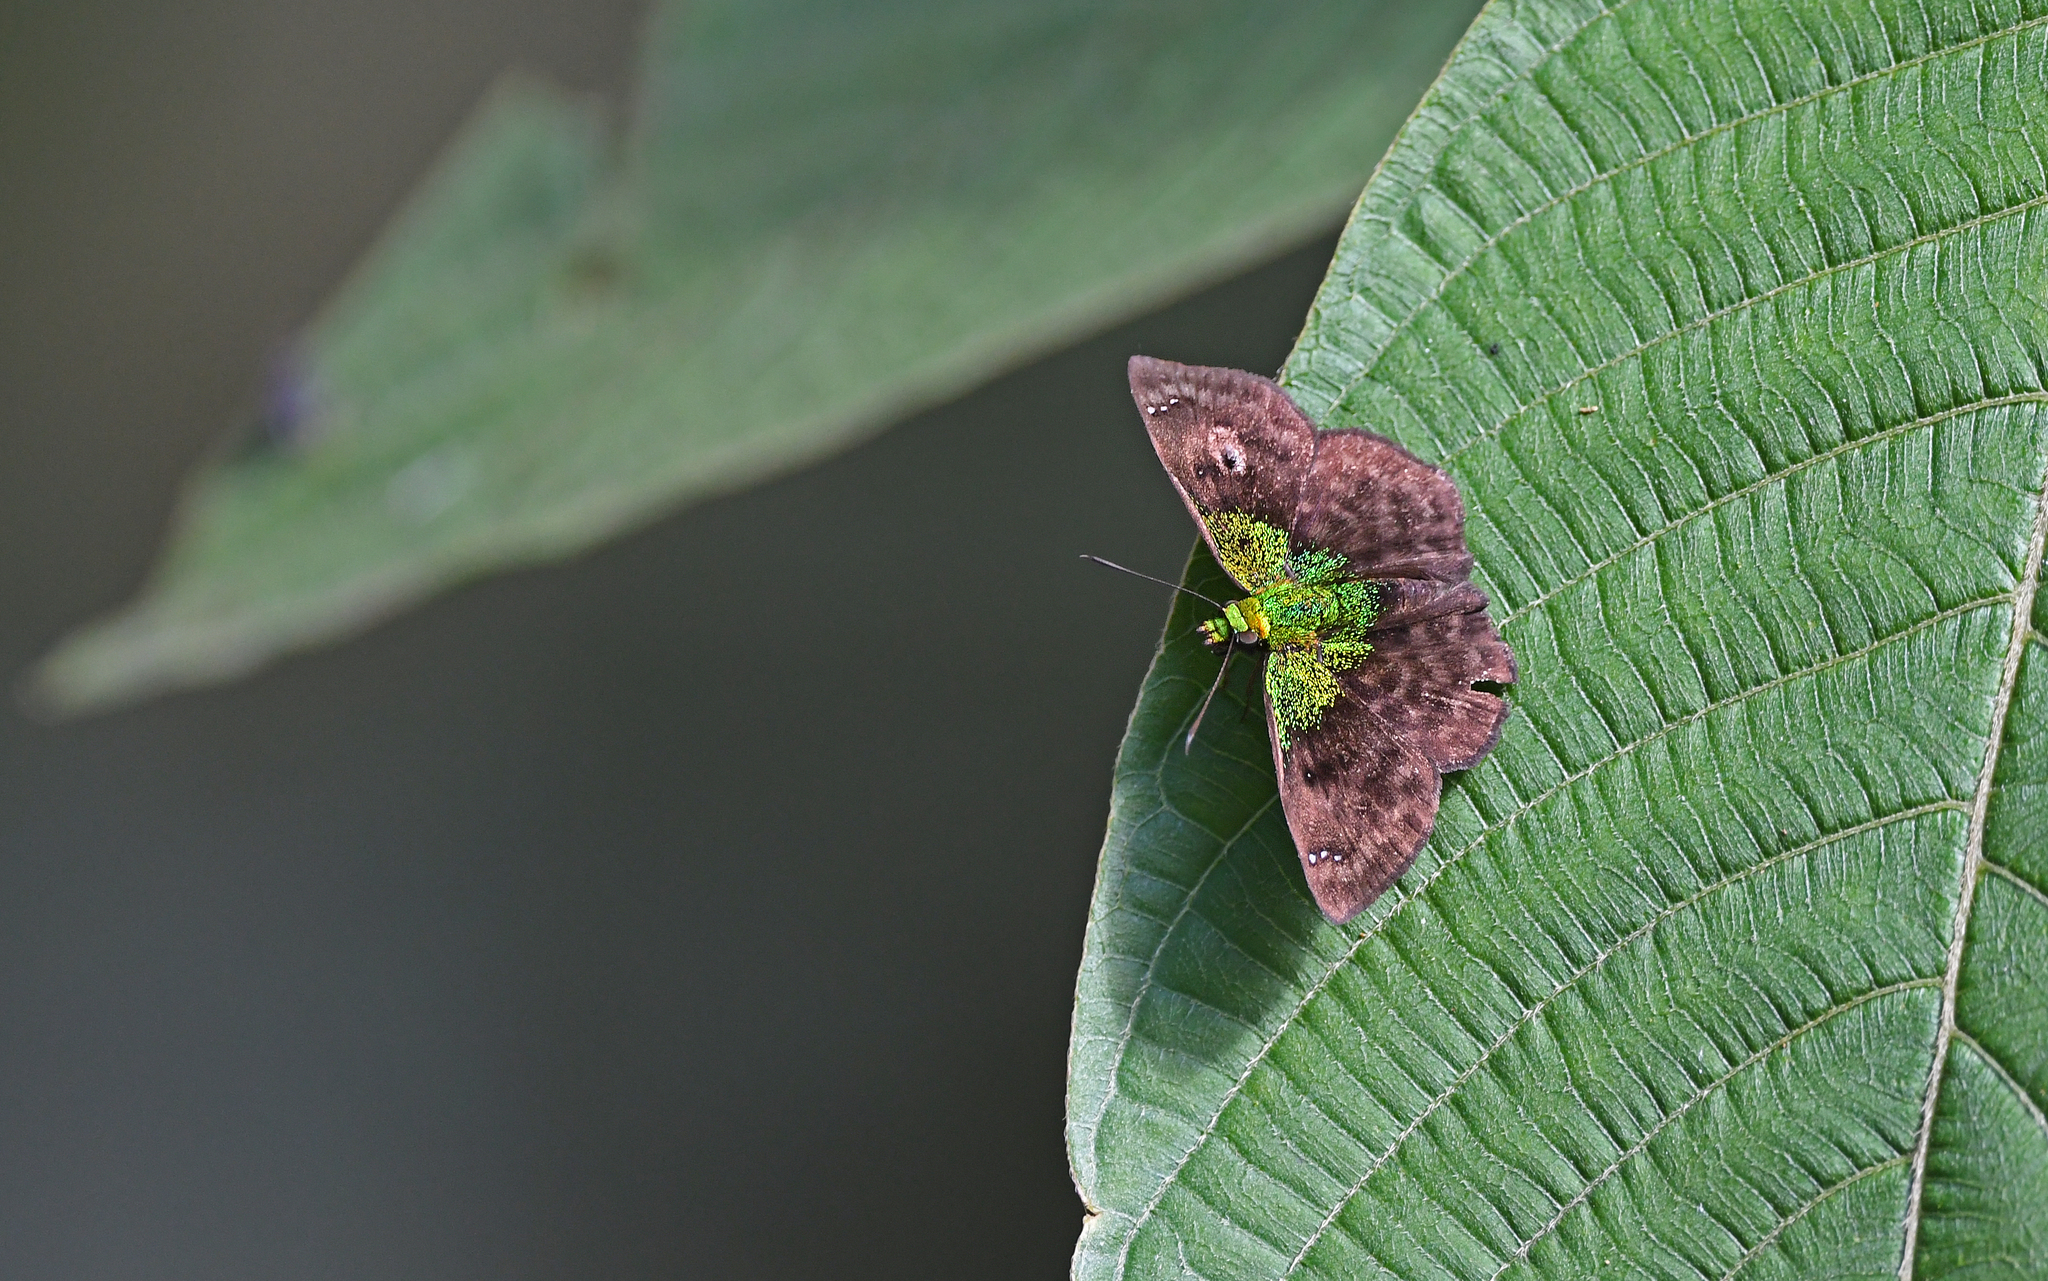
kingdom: Animalia
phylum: Arthropoda
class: Insecta
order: Lepidoptera
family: Hesperiidae
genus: Gorgopas
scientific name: Gorgopas trochilus
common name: Green-shouldered sootywing
